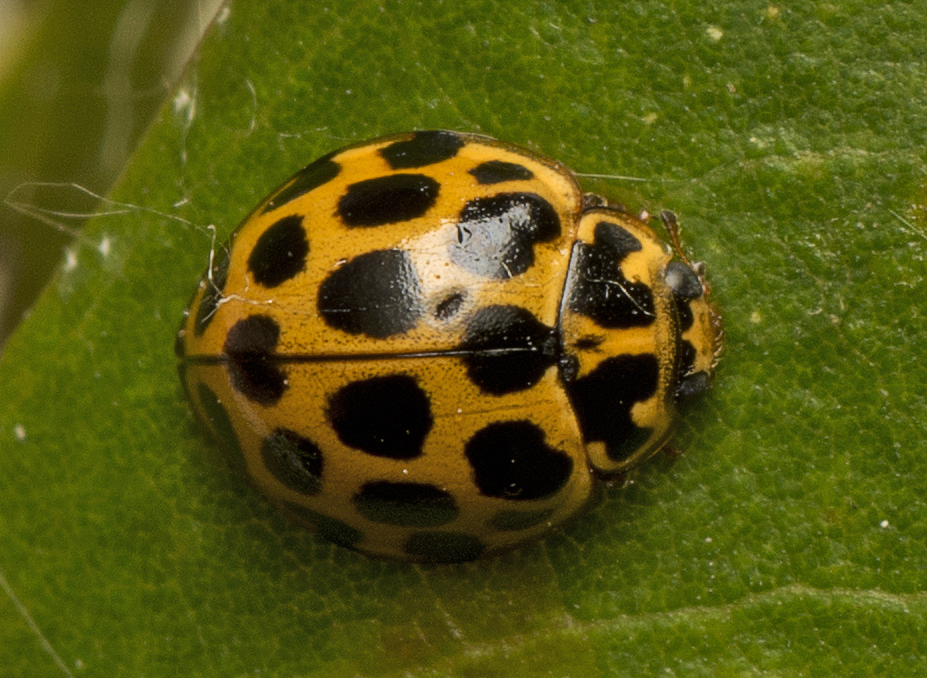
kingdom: Animalia
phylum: Arthropoda
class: Insecta
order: Coleoptera
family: Coccinellidae
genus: Harmonia
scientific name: Harmonia conformis
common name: Common spotted ladybird beetle
